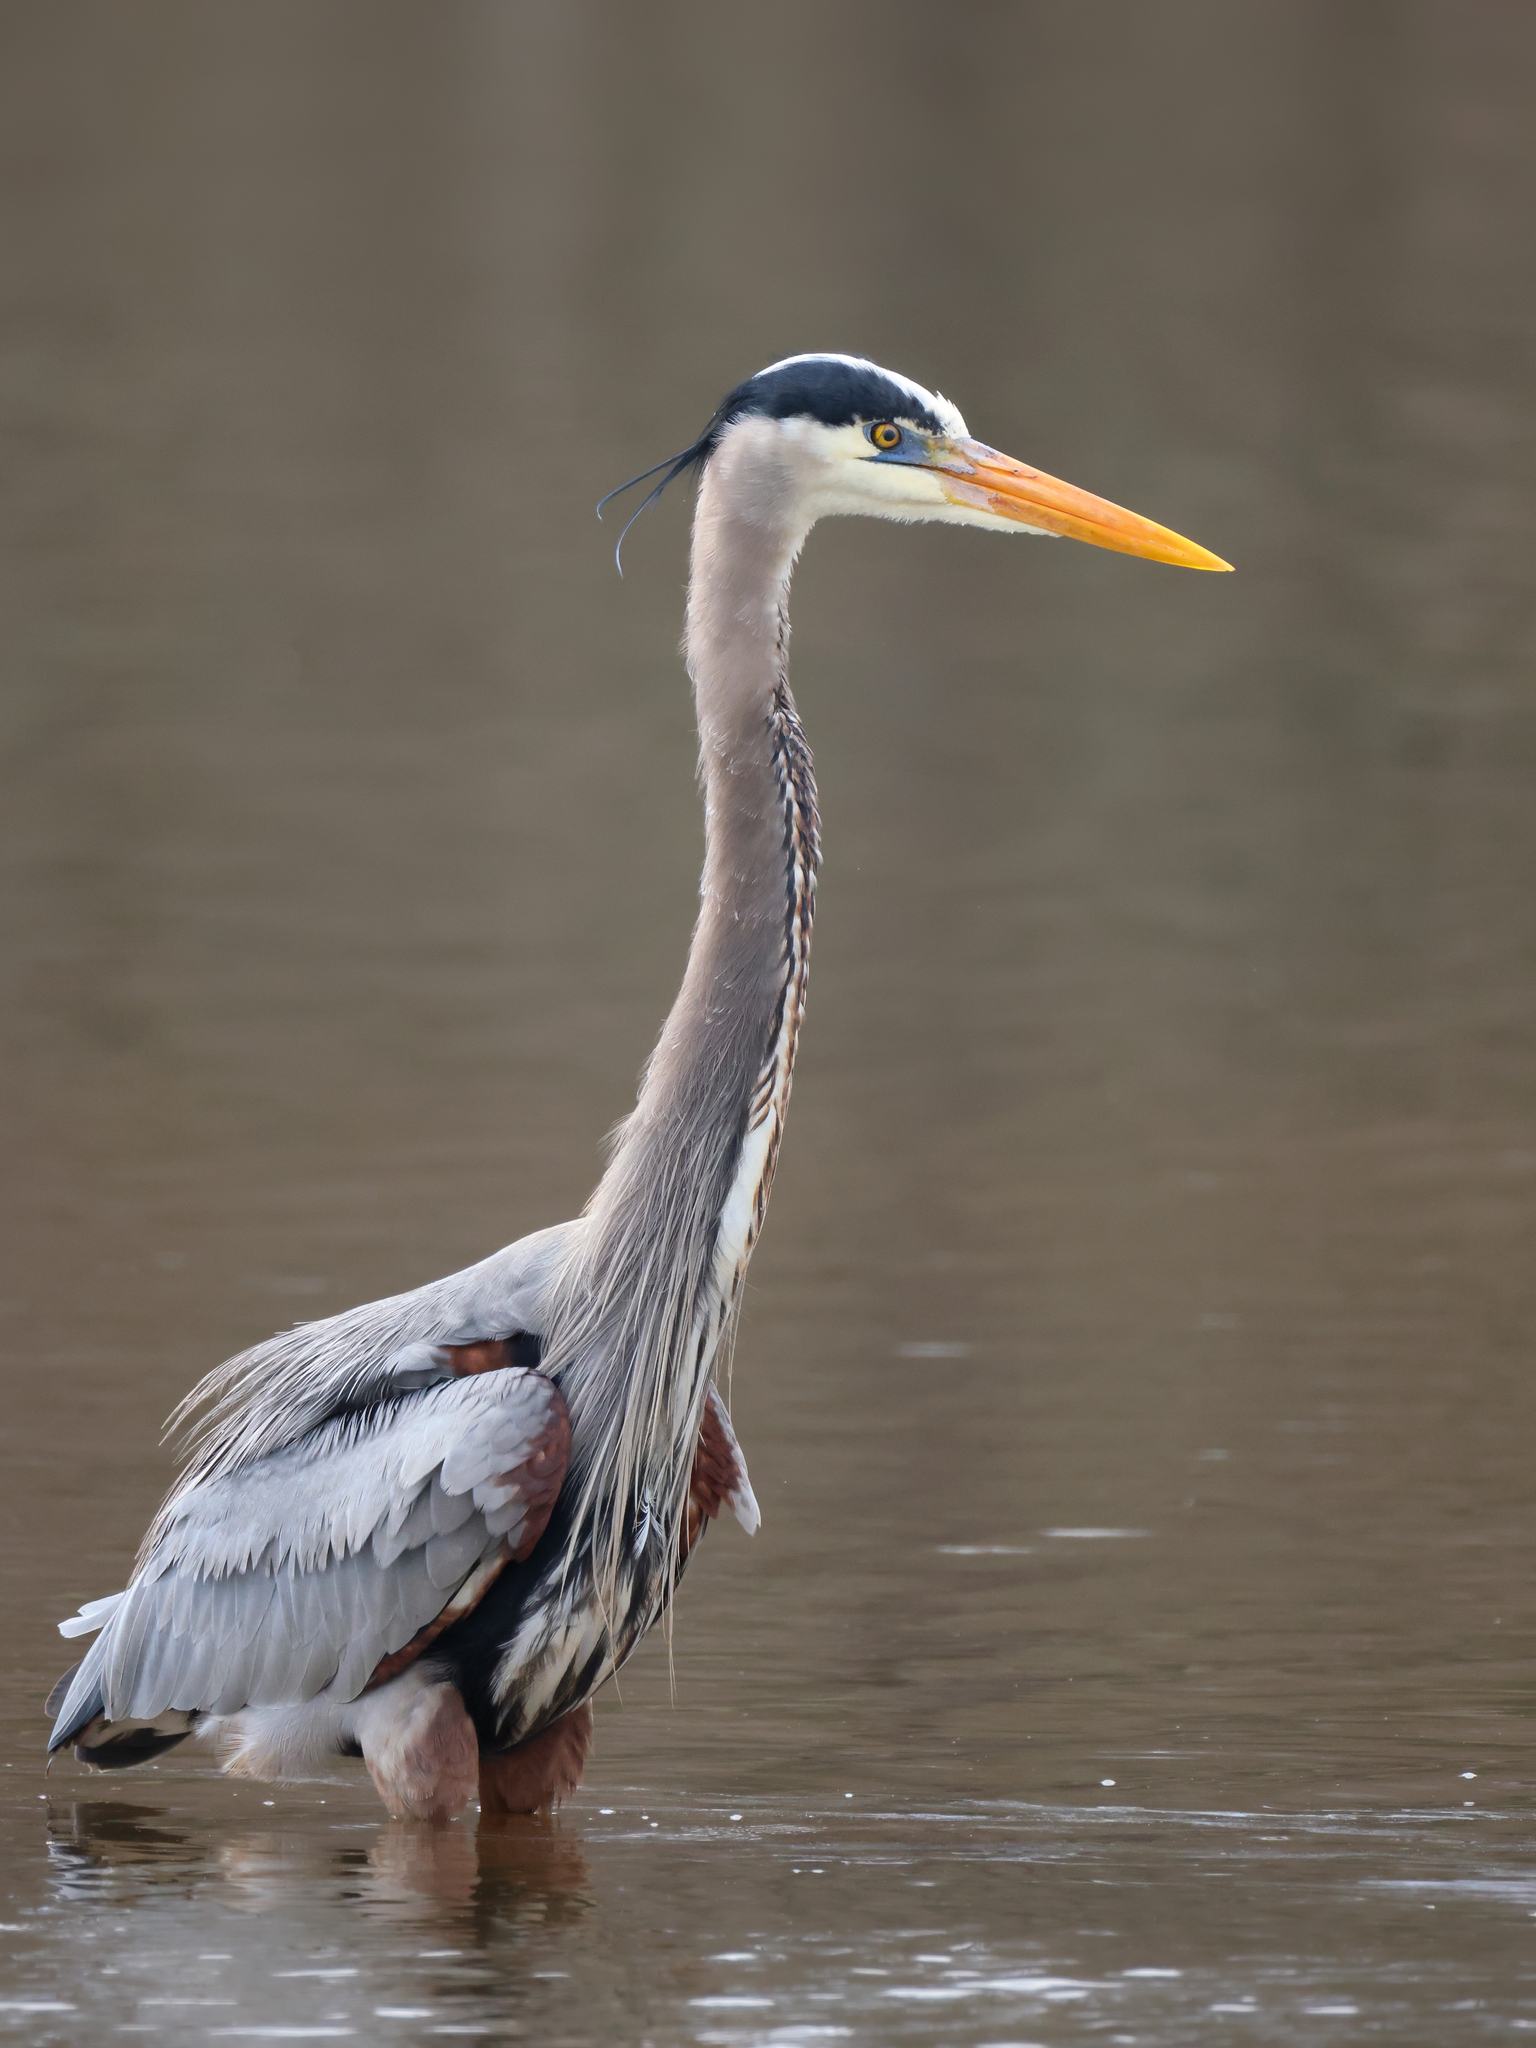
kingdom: Animalia
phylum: Chordata
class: Aves
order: Pelecaniformes
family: Ardeidae
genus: Ardea
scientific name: Ardea herodias
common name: Great blue heron
